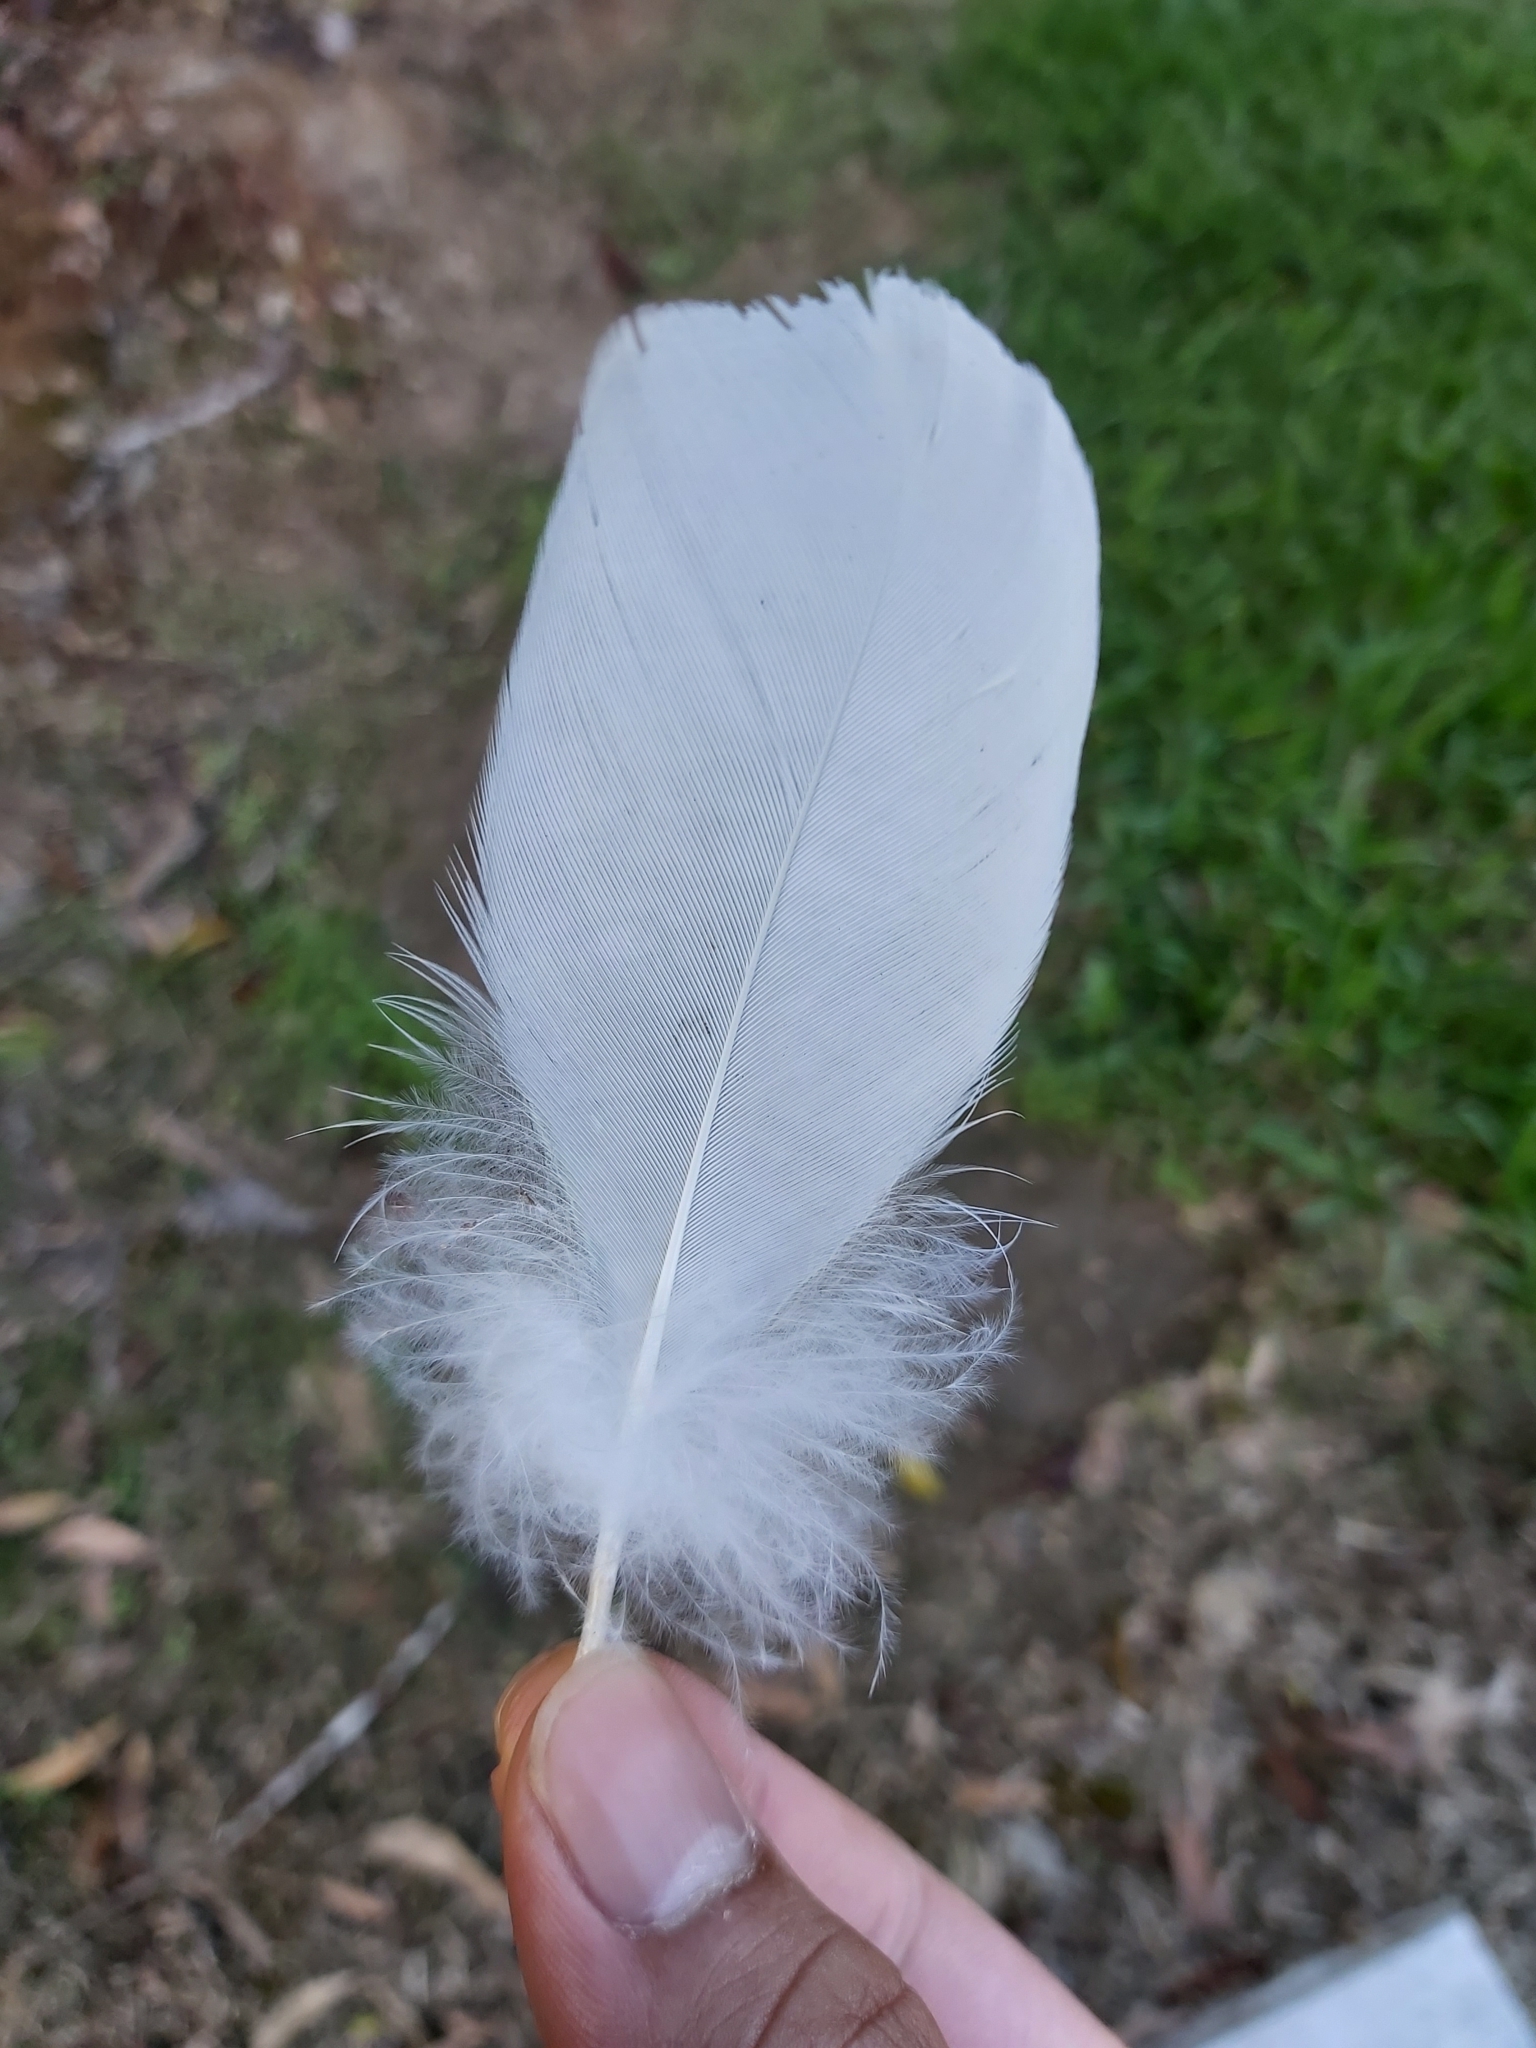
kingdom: Animalia
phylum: Chordata
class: Aves
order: Psittaciformes
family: Psittacidae
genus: Cacatua
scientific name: Cacatua galerita
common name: Sulphur-crested cockatoo
